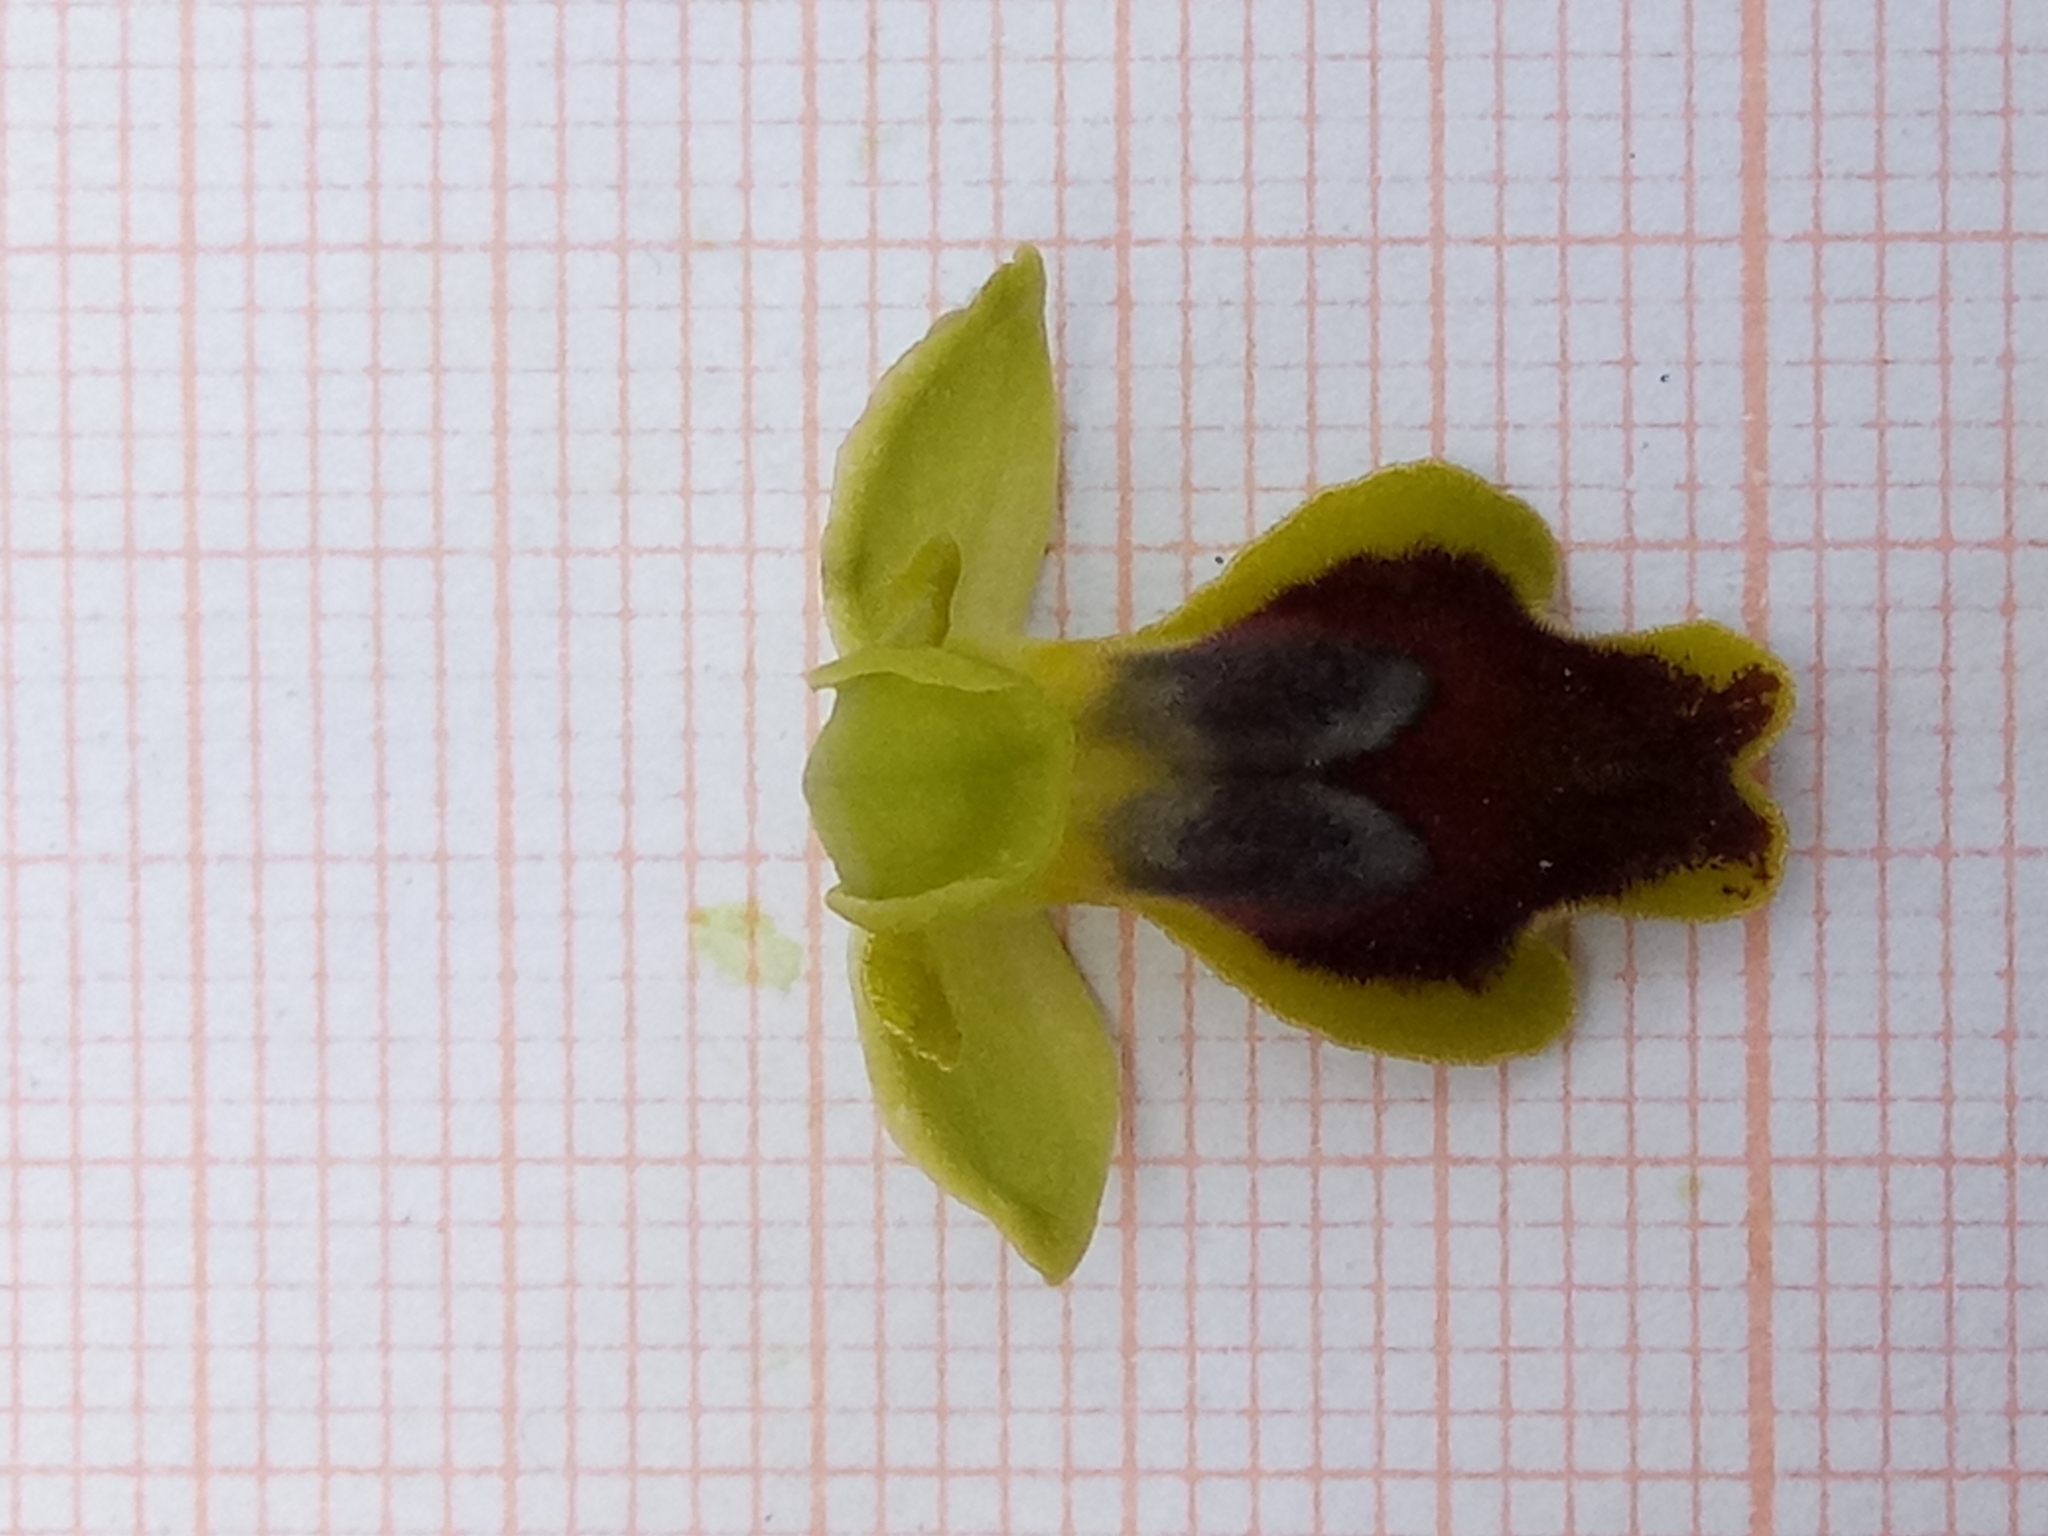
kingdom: Plantae
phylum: Tracheophyta
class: Liliopsida
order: Asparagales
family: Orchidaceae
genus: Ophrys
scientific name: Ophrys battandieri
